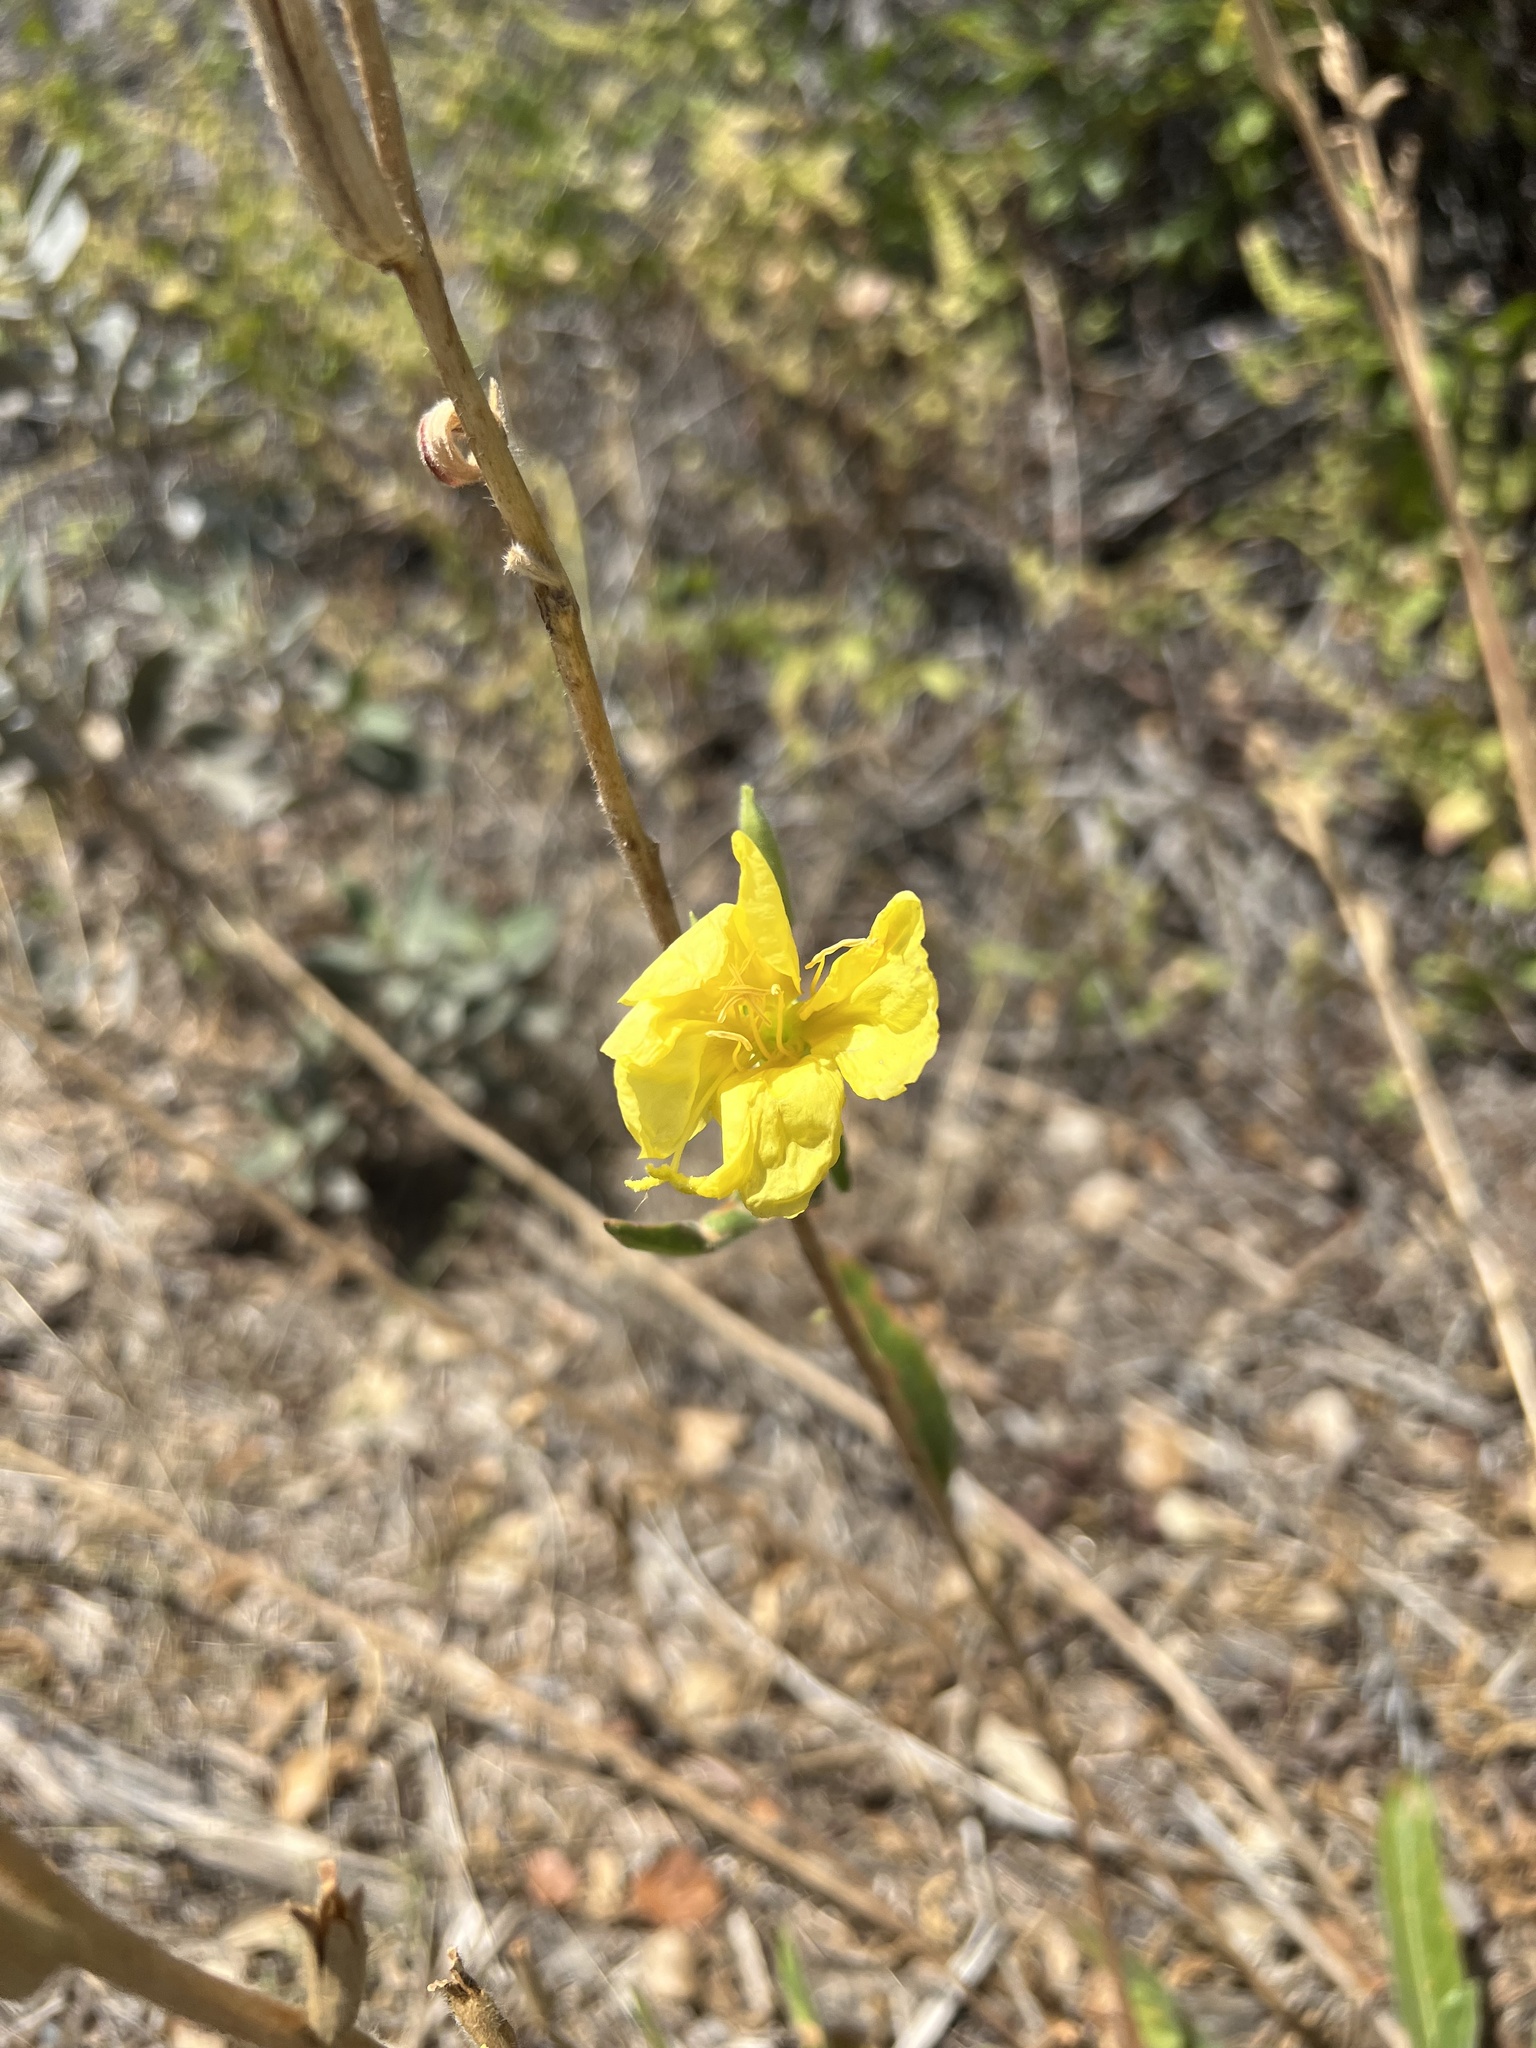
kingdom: Plantae
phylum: Tracheophyta
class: Magnoliopsida
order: Myrtales
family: Onagraceae
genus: Oenothera
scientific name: Oenothera elata
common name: Hooker's evening-primrose
